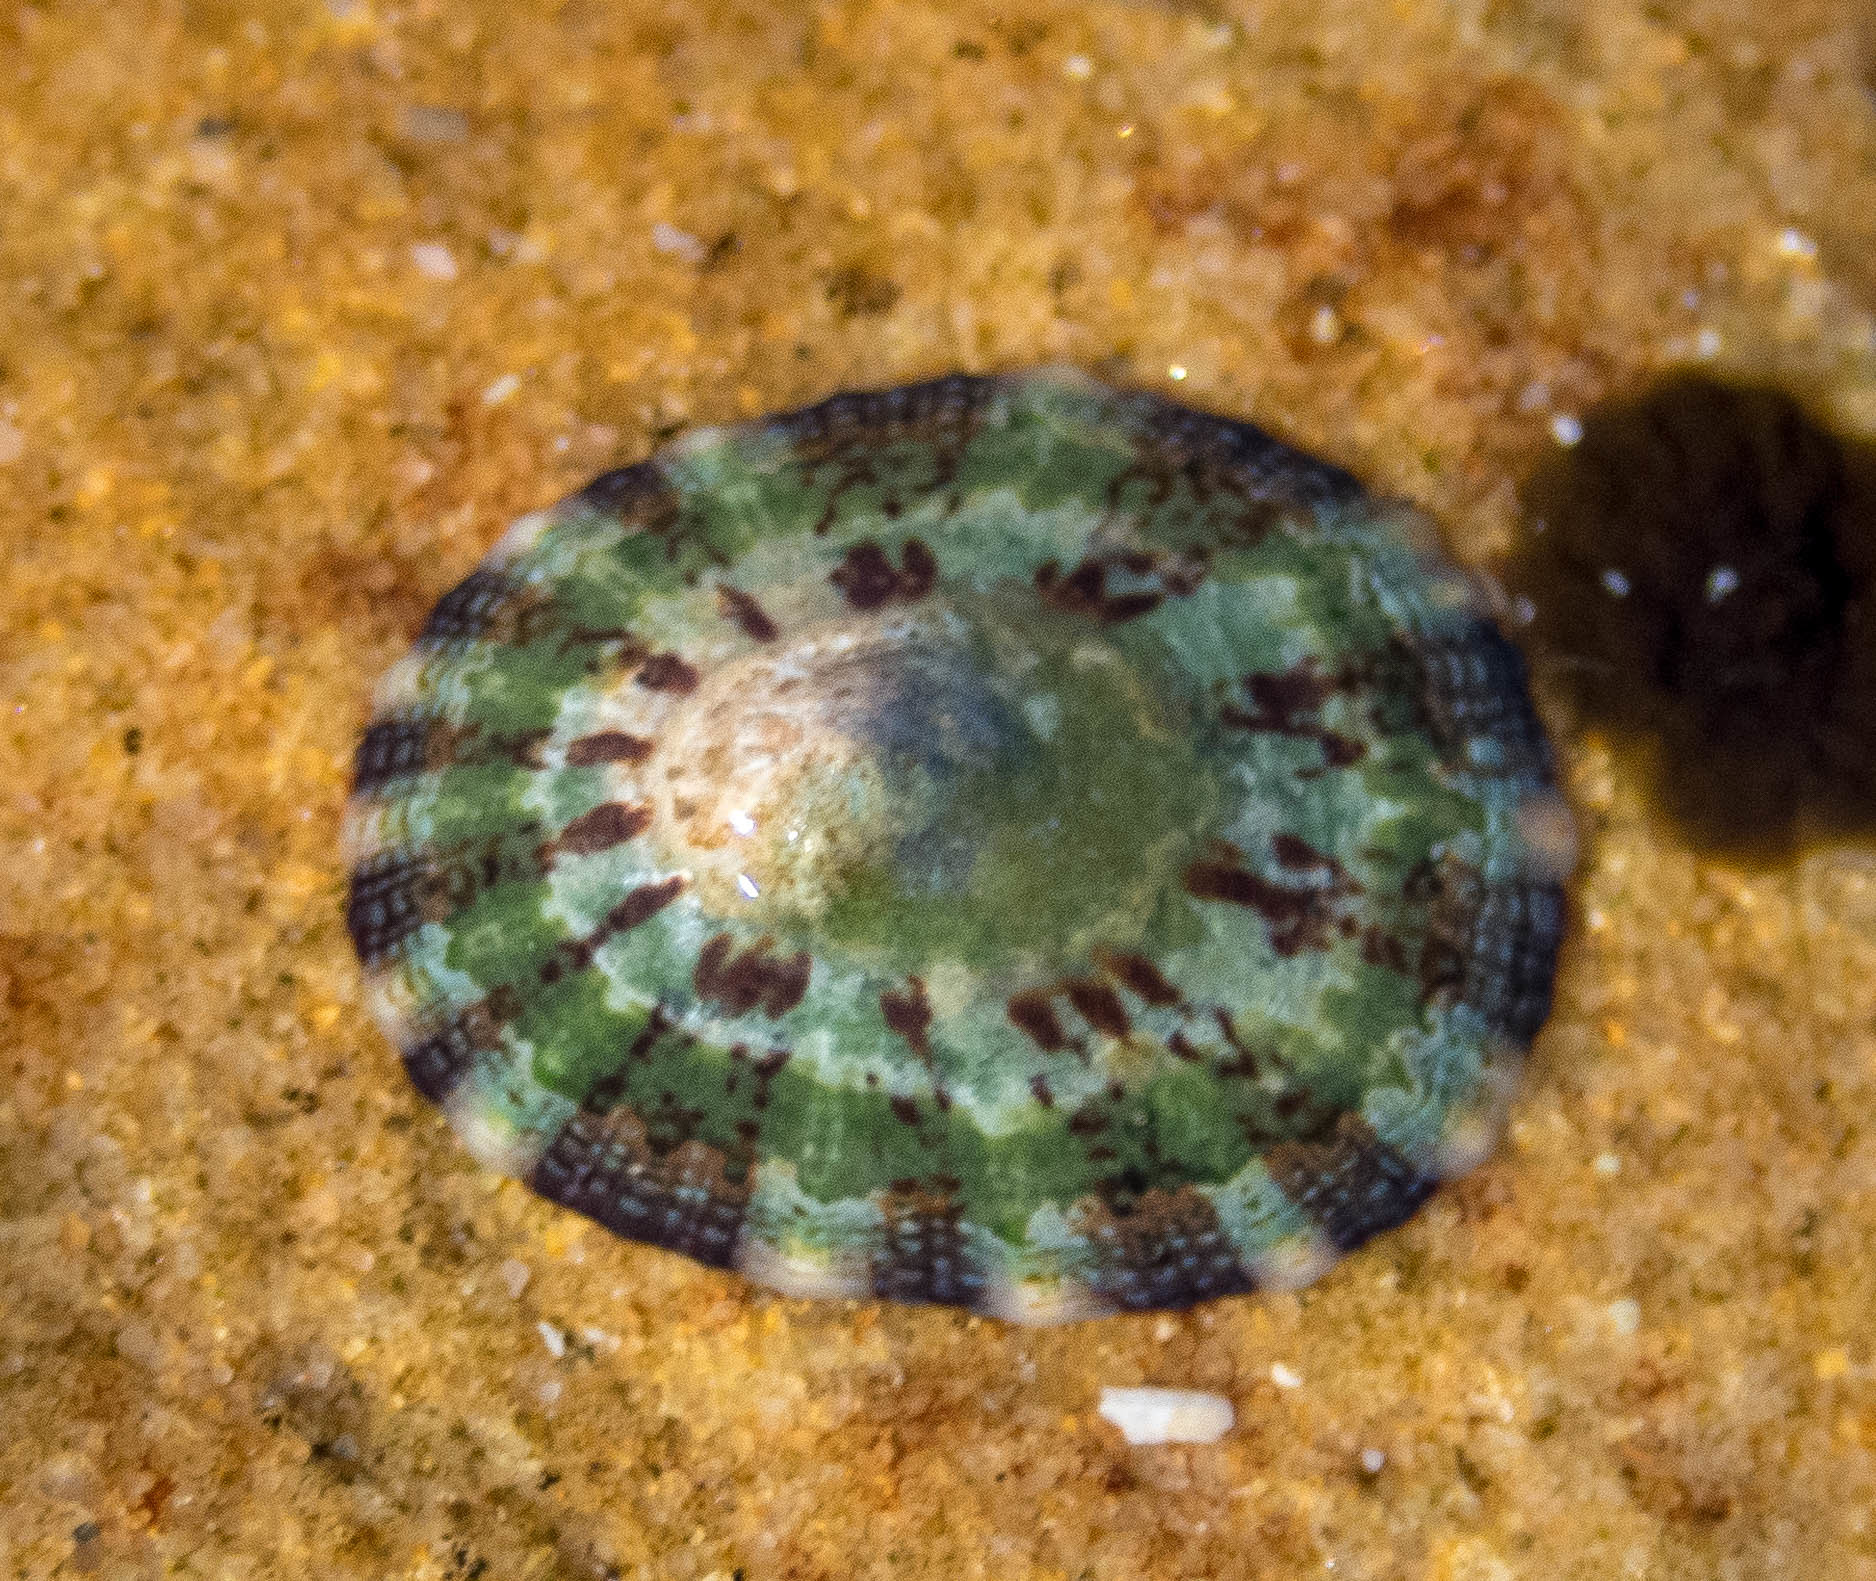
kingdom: Animalia
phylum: Mollusca
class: Gastropoda
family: Nacellidae
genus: Cellana
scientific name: Cellana tramoserica
